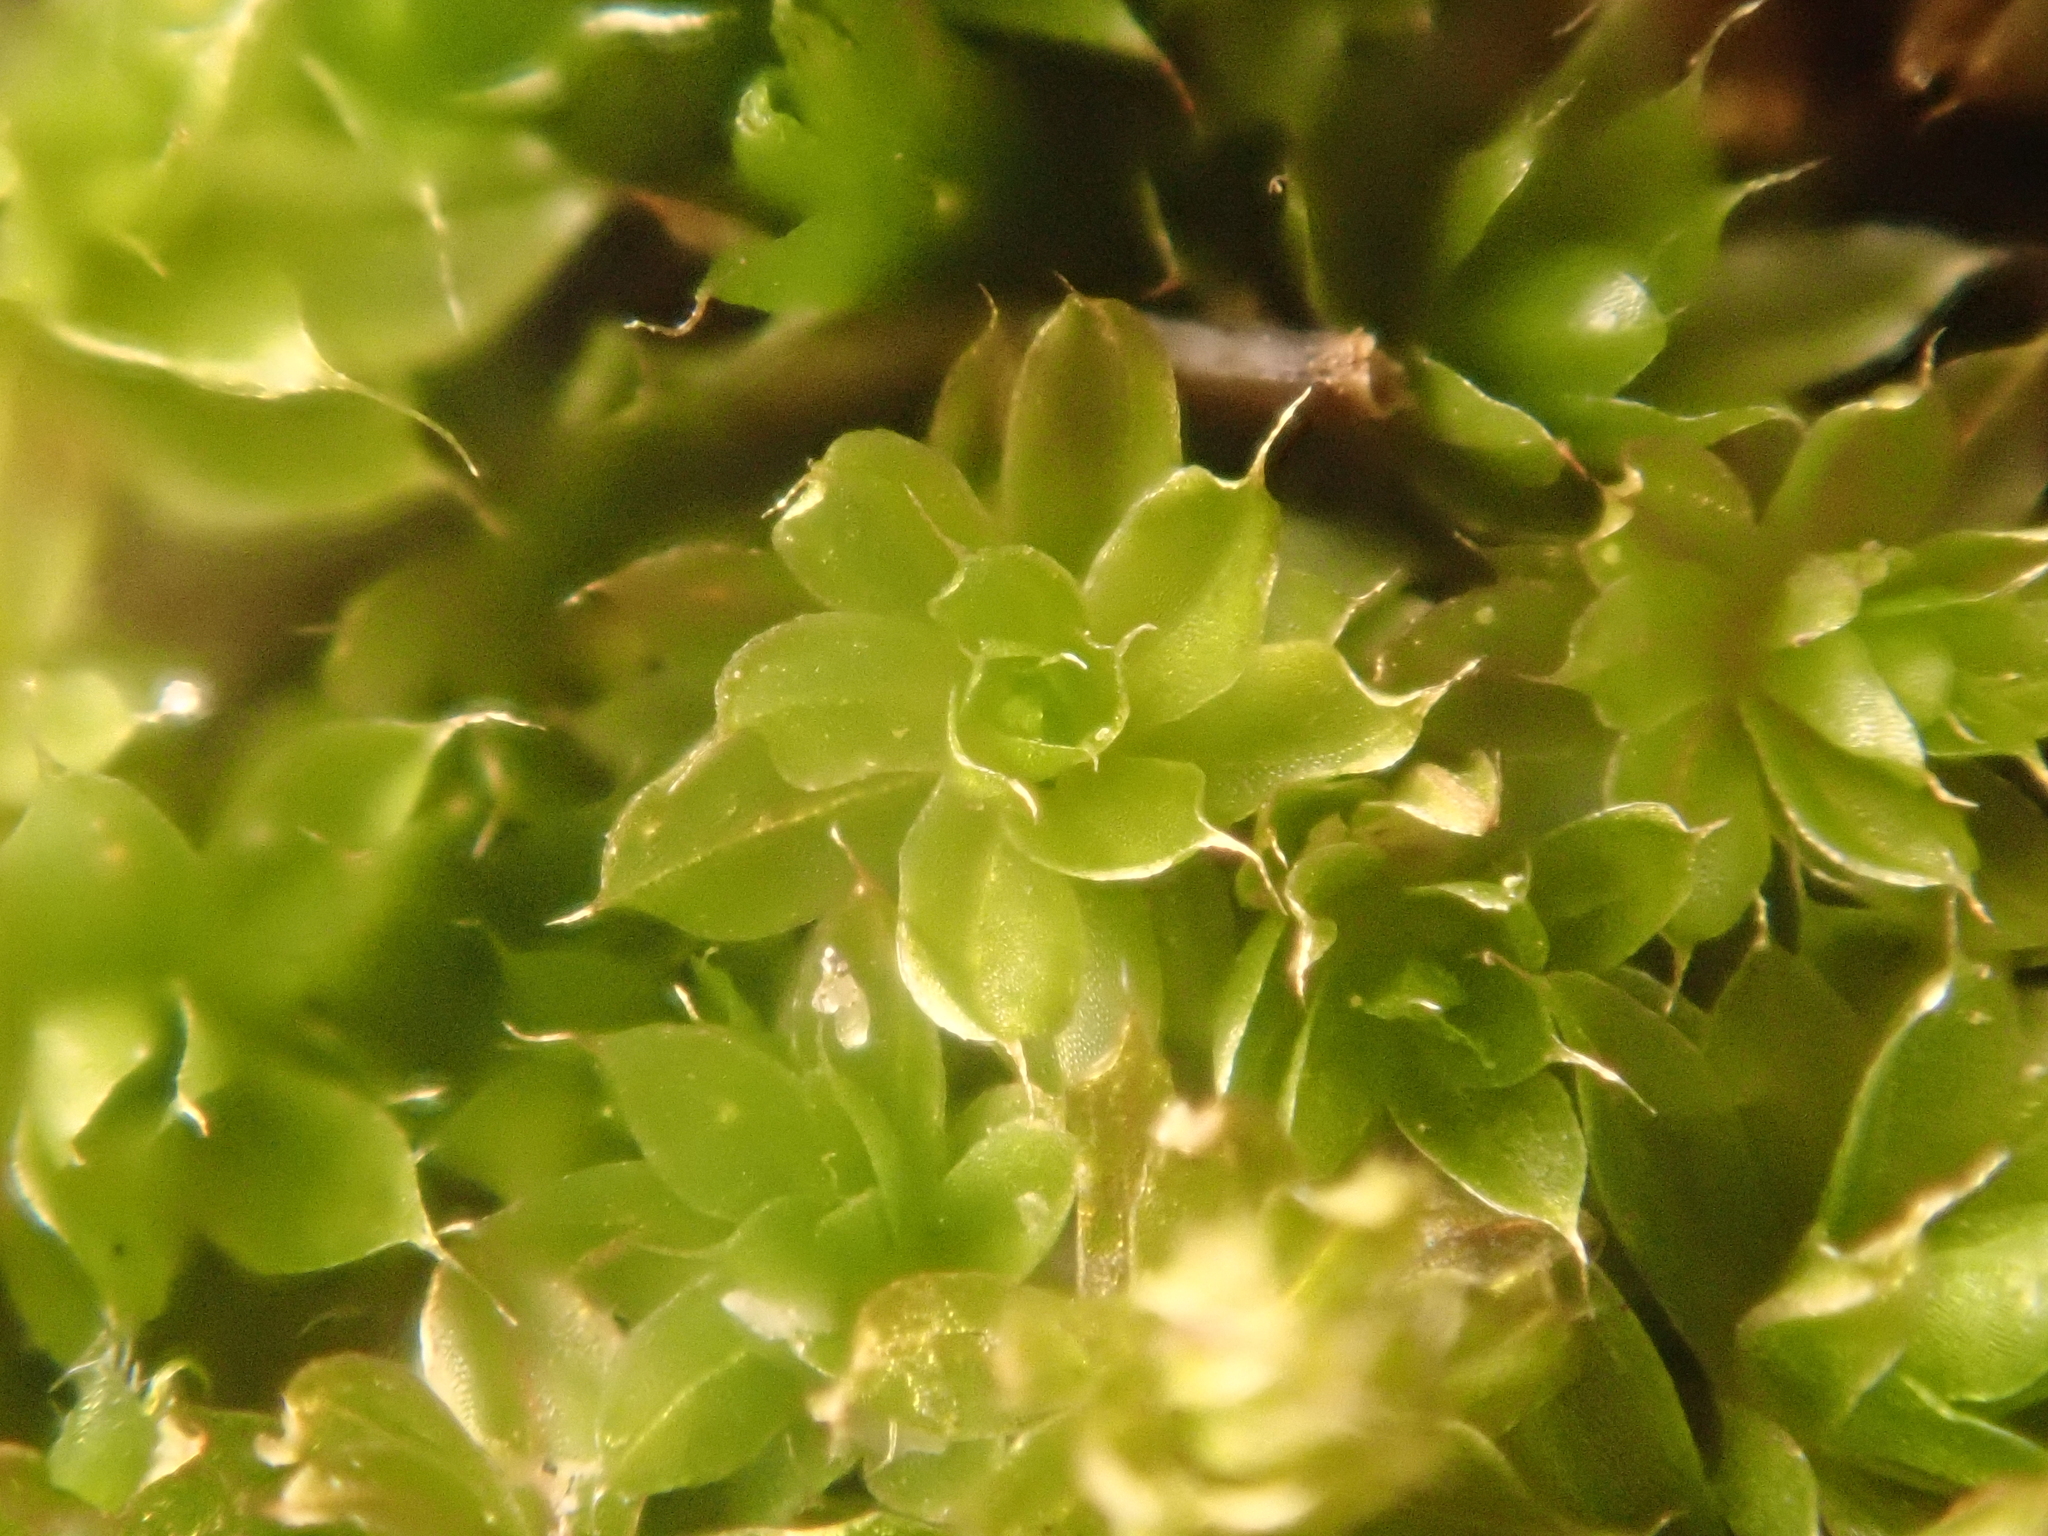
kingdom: Plantae
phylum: Bryophyta
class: Bryopsida
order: Bryales
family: Bryaceae
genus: Rosulabryum
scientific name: Rosulabryum capillare
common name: Capillary thread-moss
